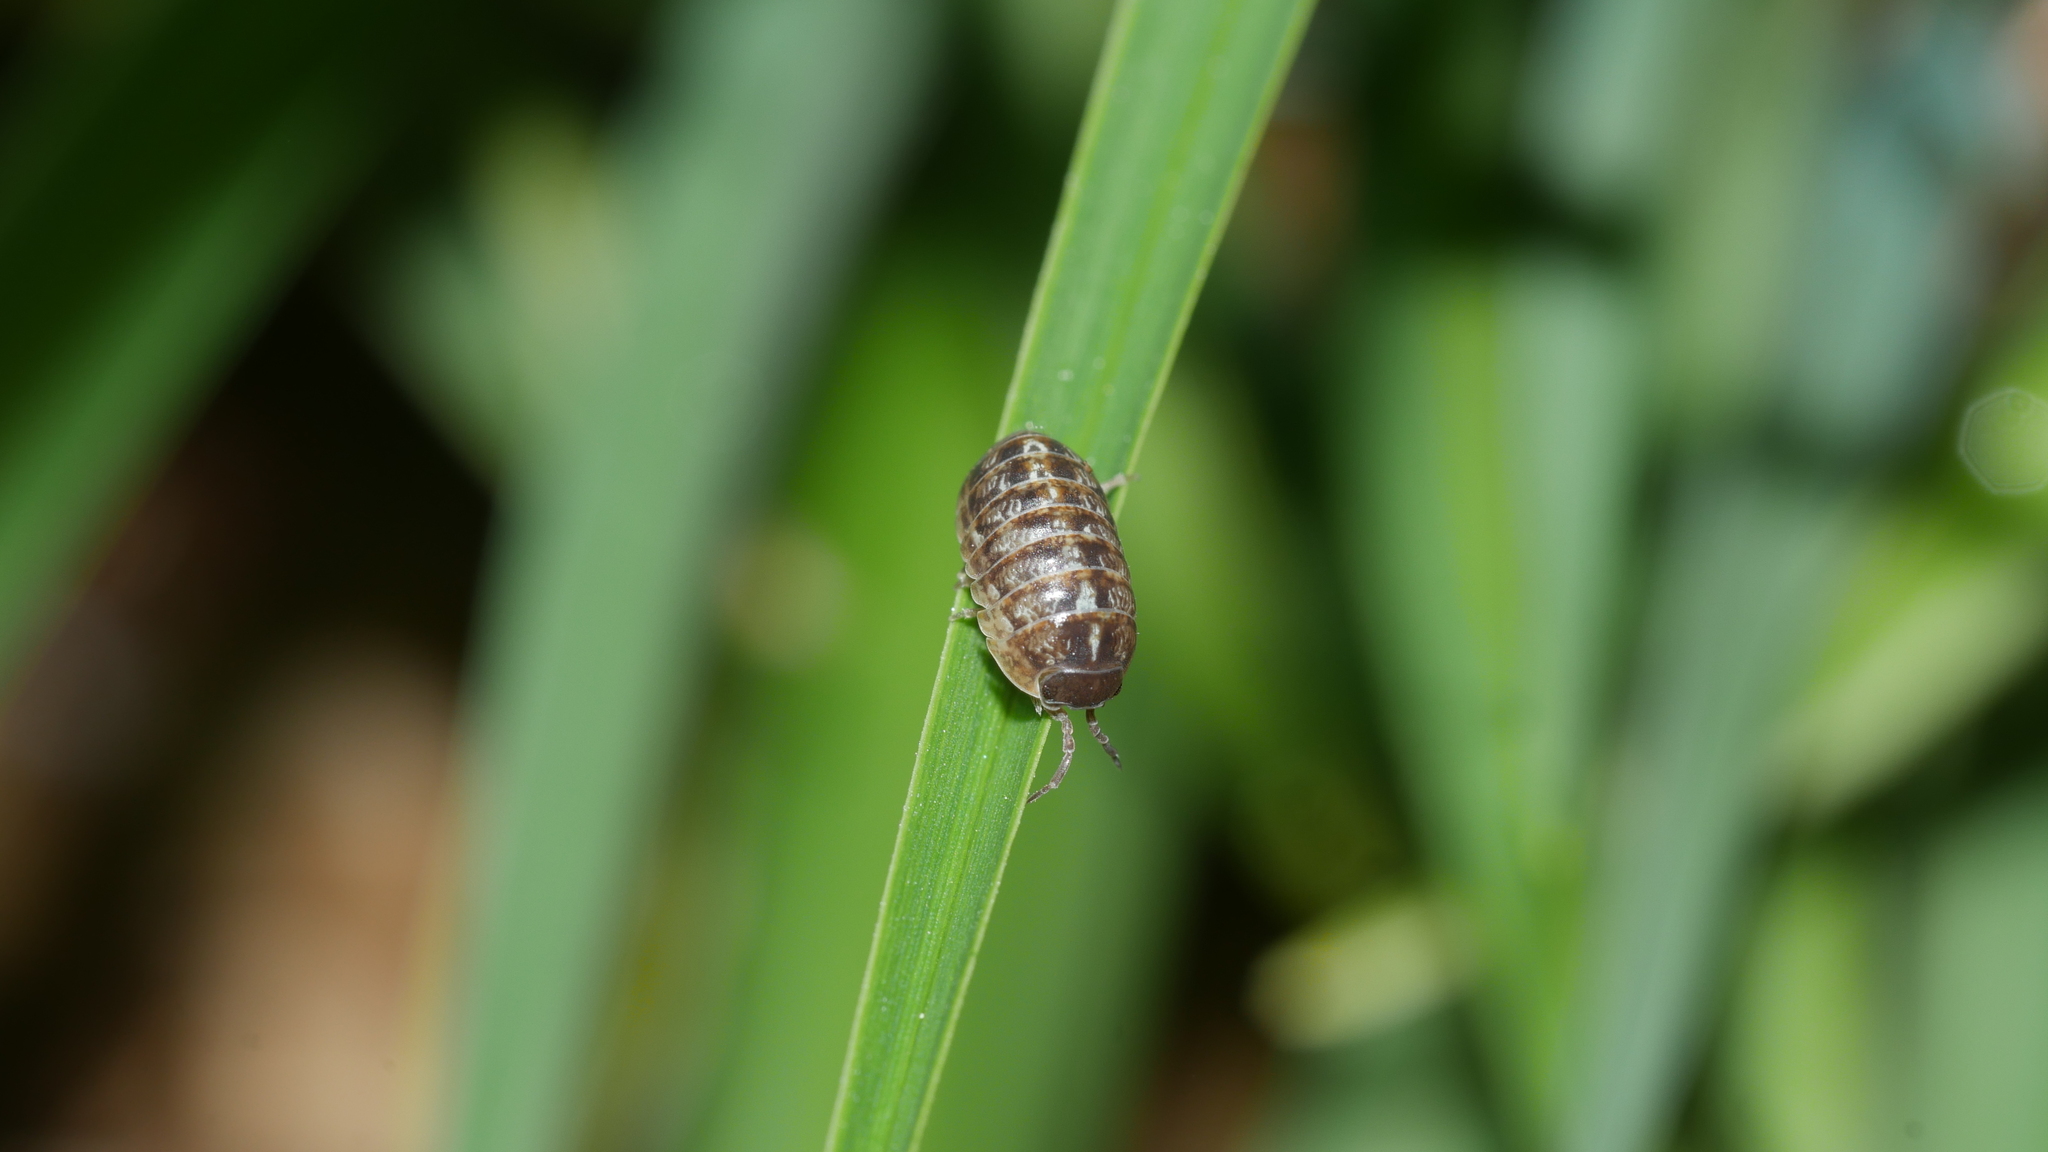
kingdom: Animalia
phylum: Arthropoda
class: Malacostraca
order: Isopoda
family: Armadillidiidae
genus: Armadillidium
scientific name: Armadillidium vulgare
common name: Common pill woodlouse
